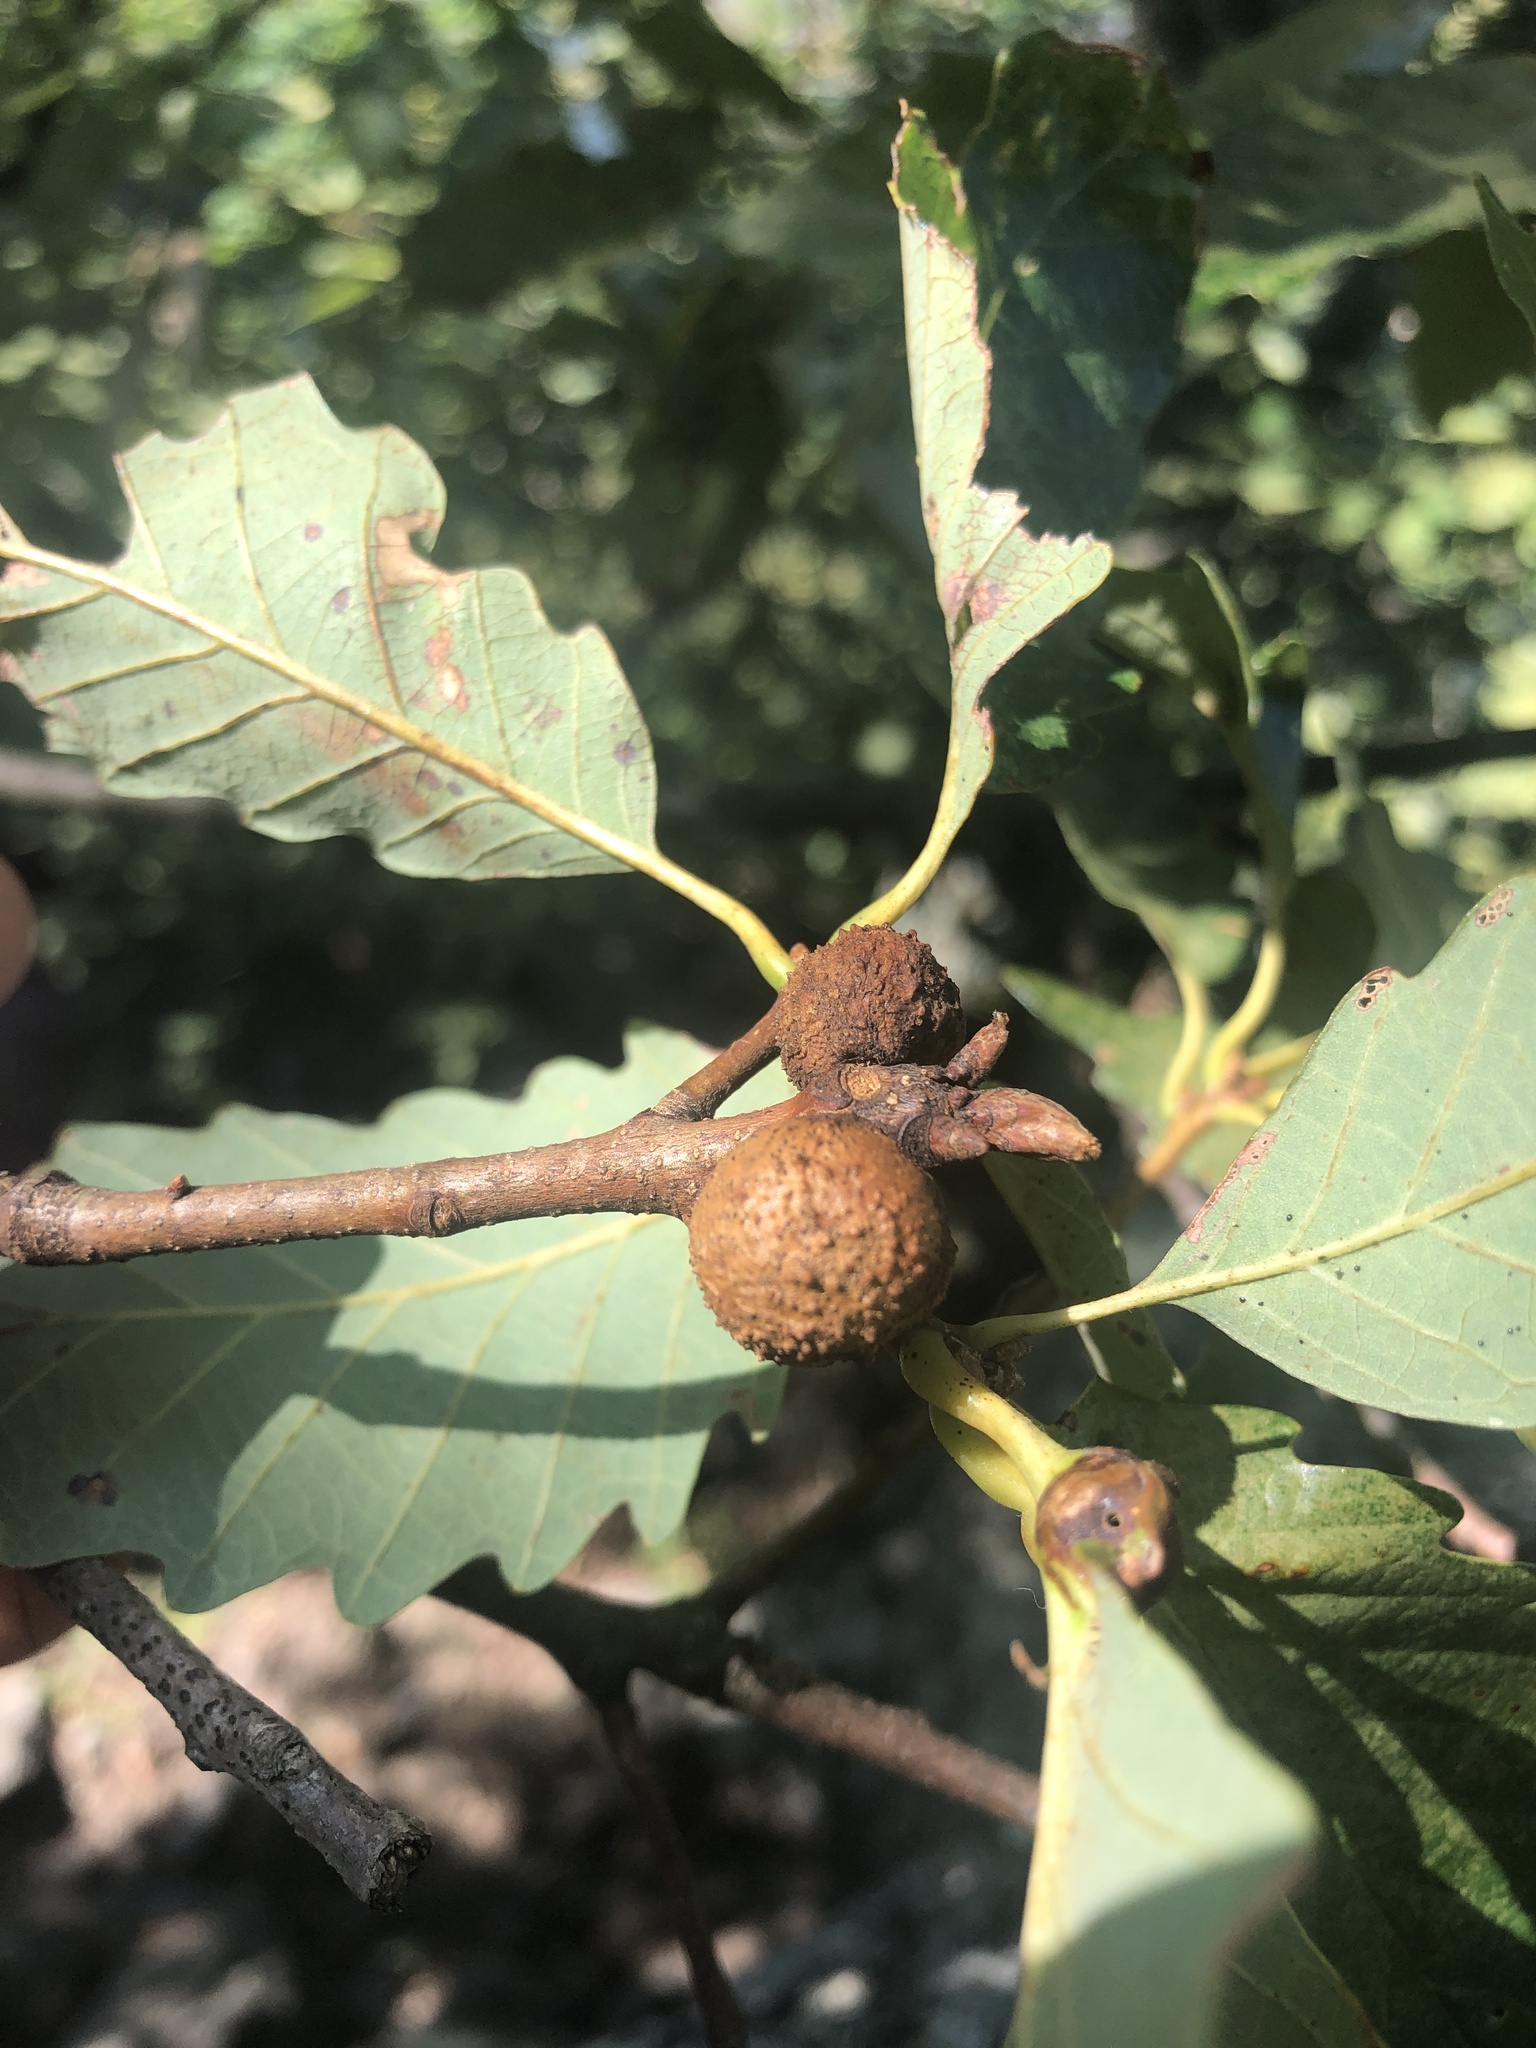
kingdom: Animalia
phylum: Arthropoda
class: Insecta
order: Hymenoptera
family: Cynipidae
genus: Disholcaspis
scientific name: Disholcaspis quercusglobulus
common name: Round bullet gall wasp
